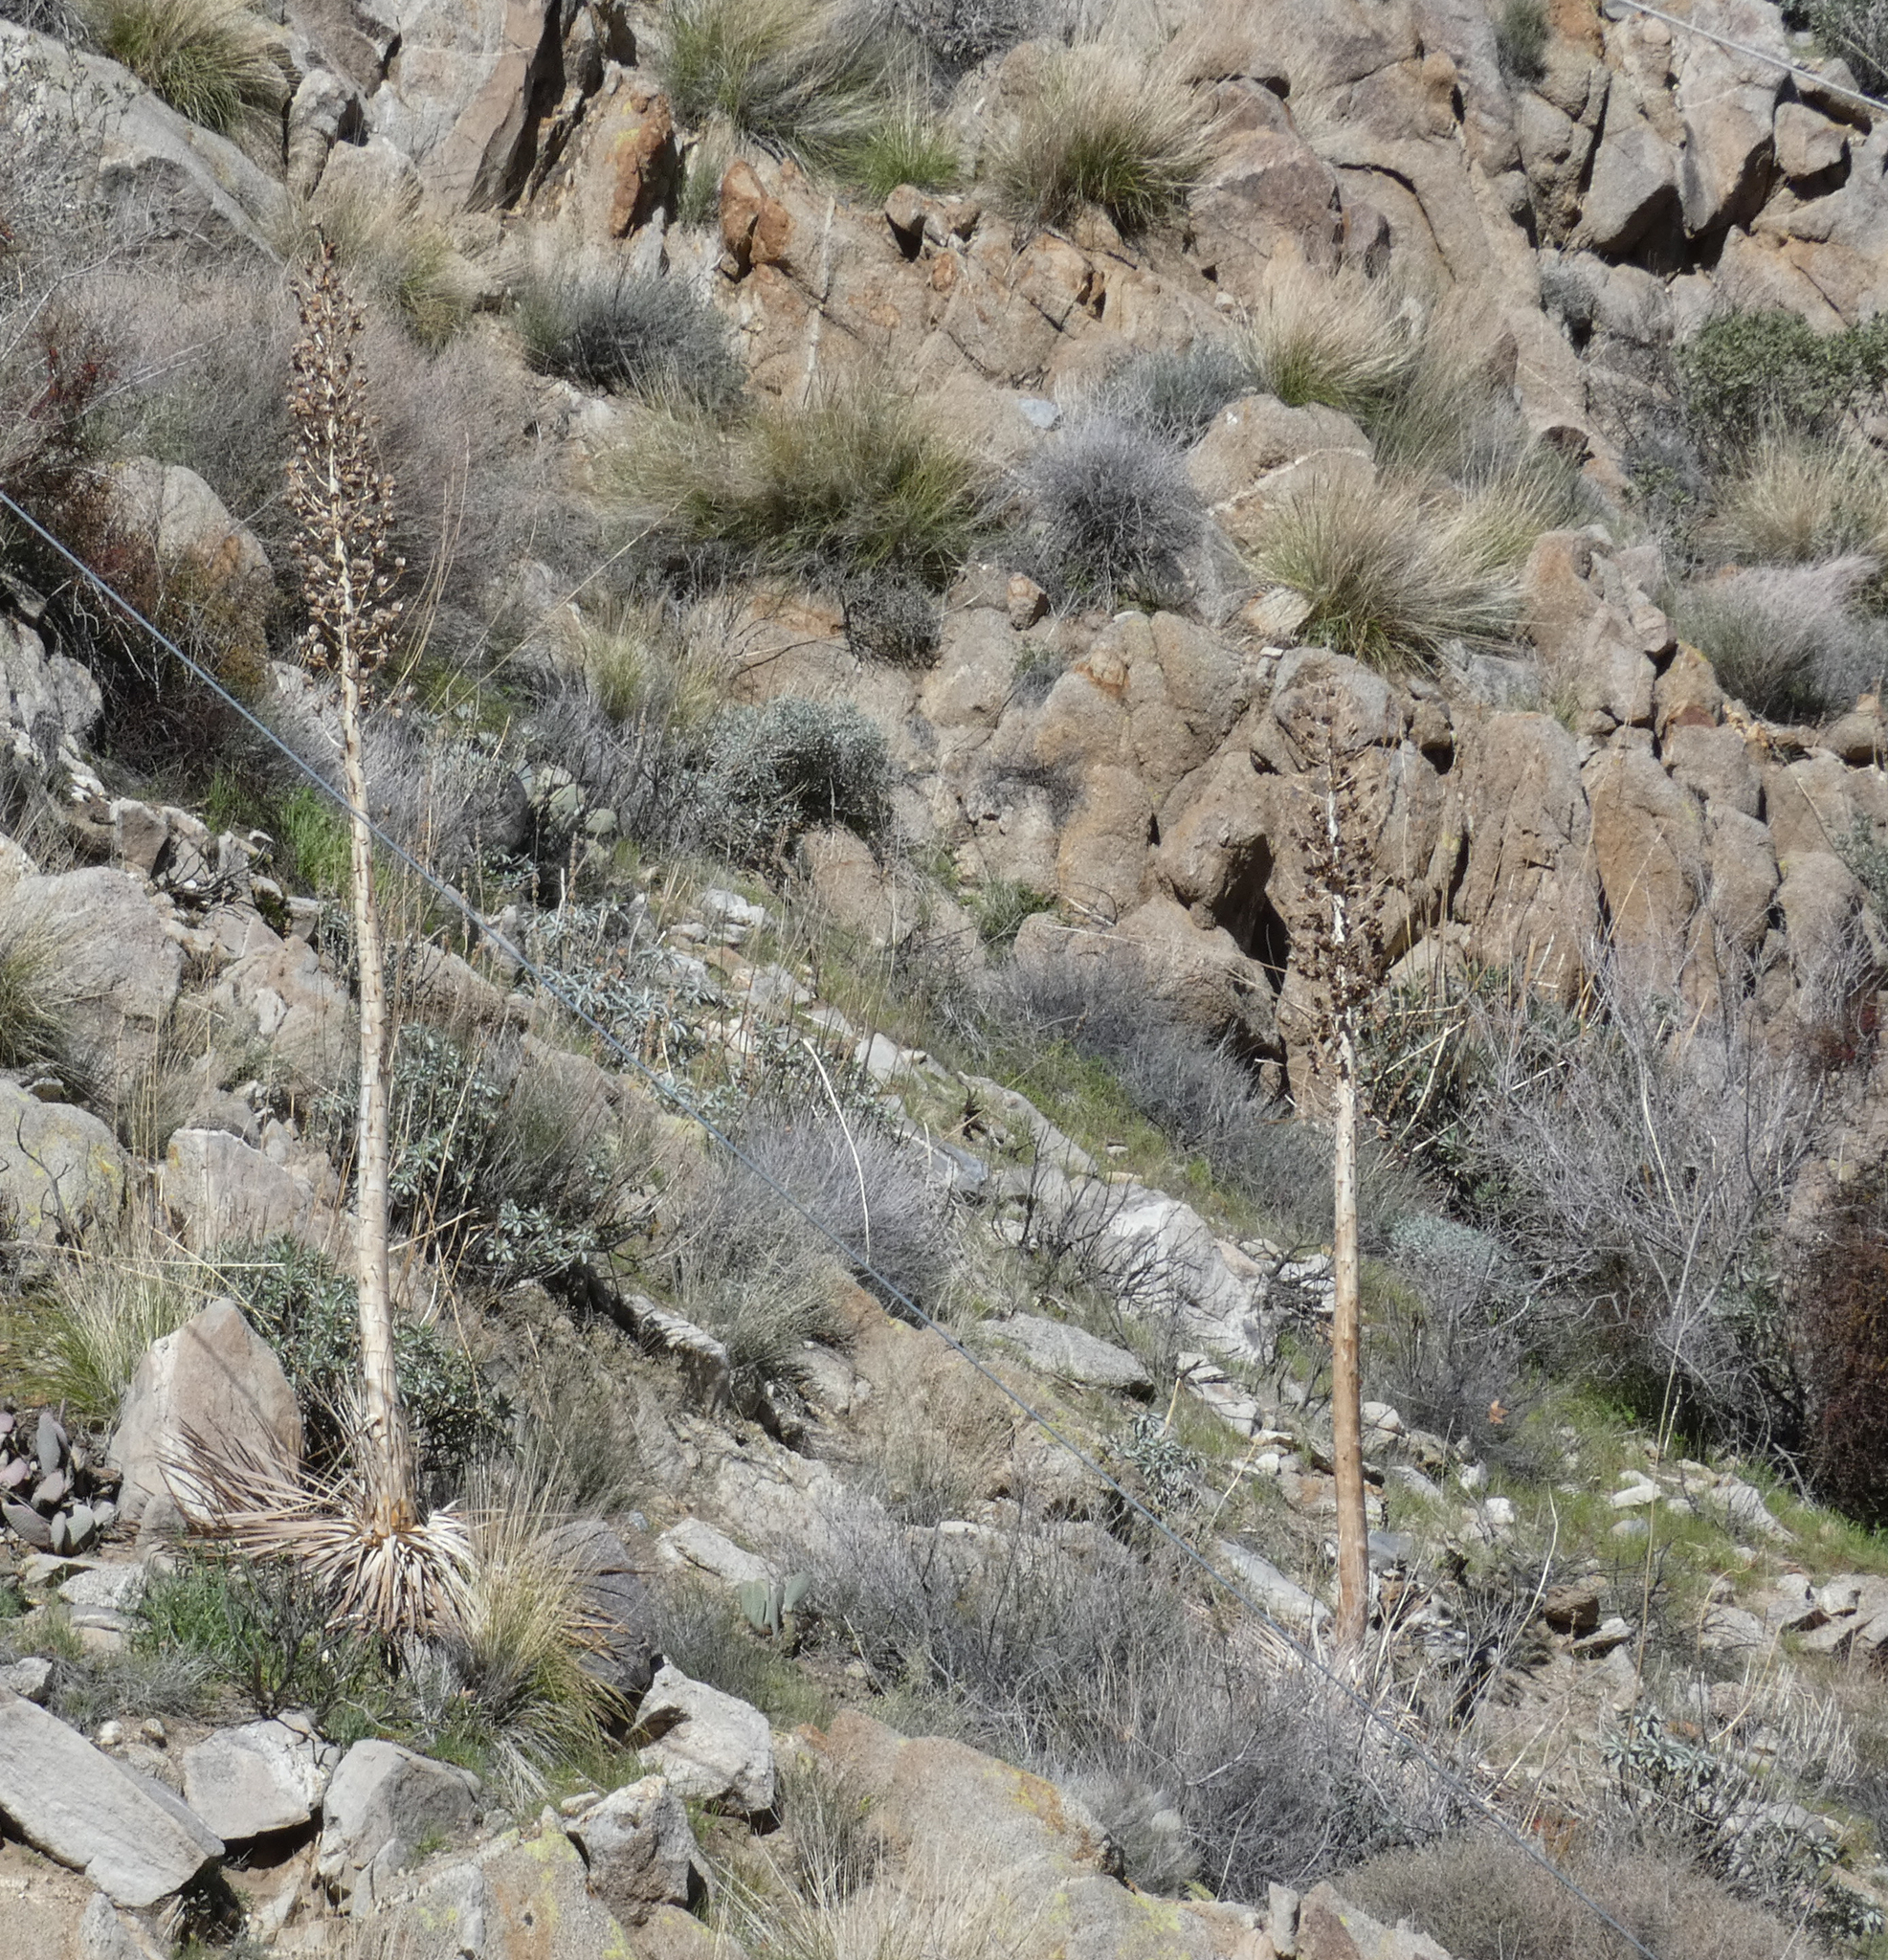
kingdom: Plantae
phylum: Tracheophyta
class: Liliopsida
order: Asparagales
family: Asparagaceae
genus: Hesperoyucca
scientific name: Hesperoyucca whipplei
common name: Our lord's-candle
